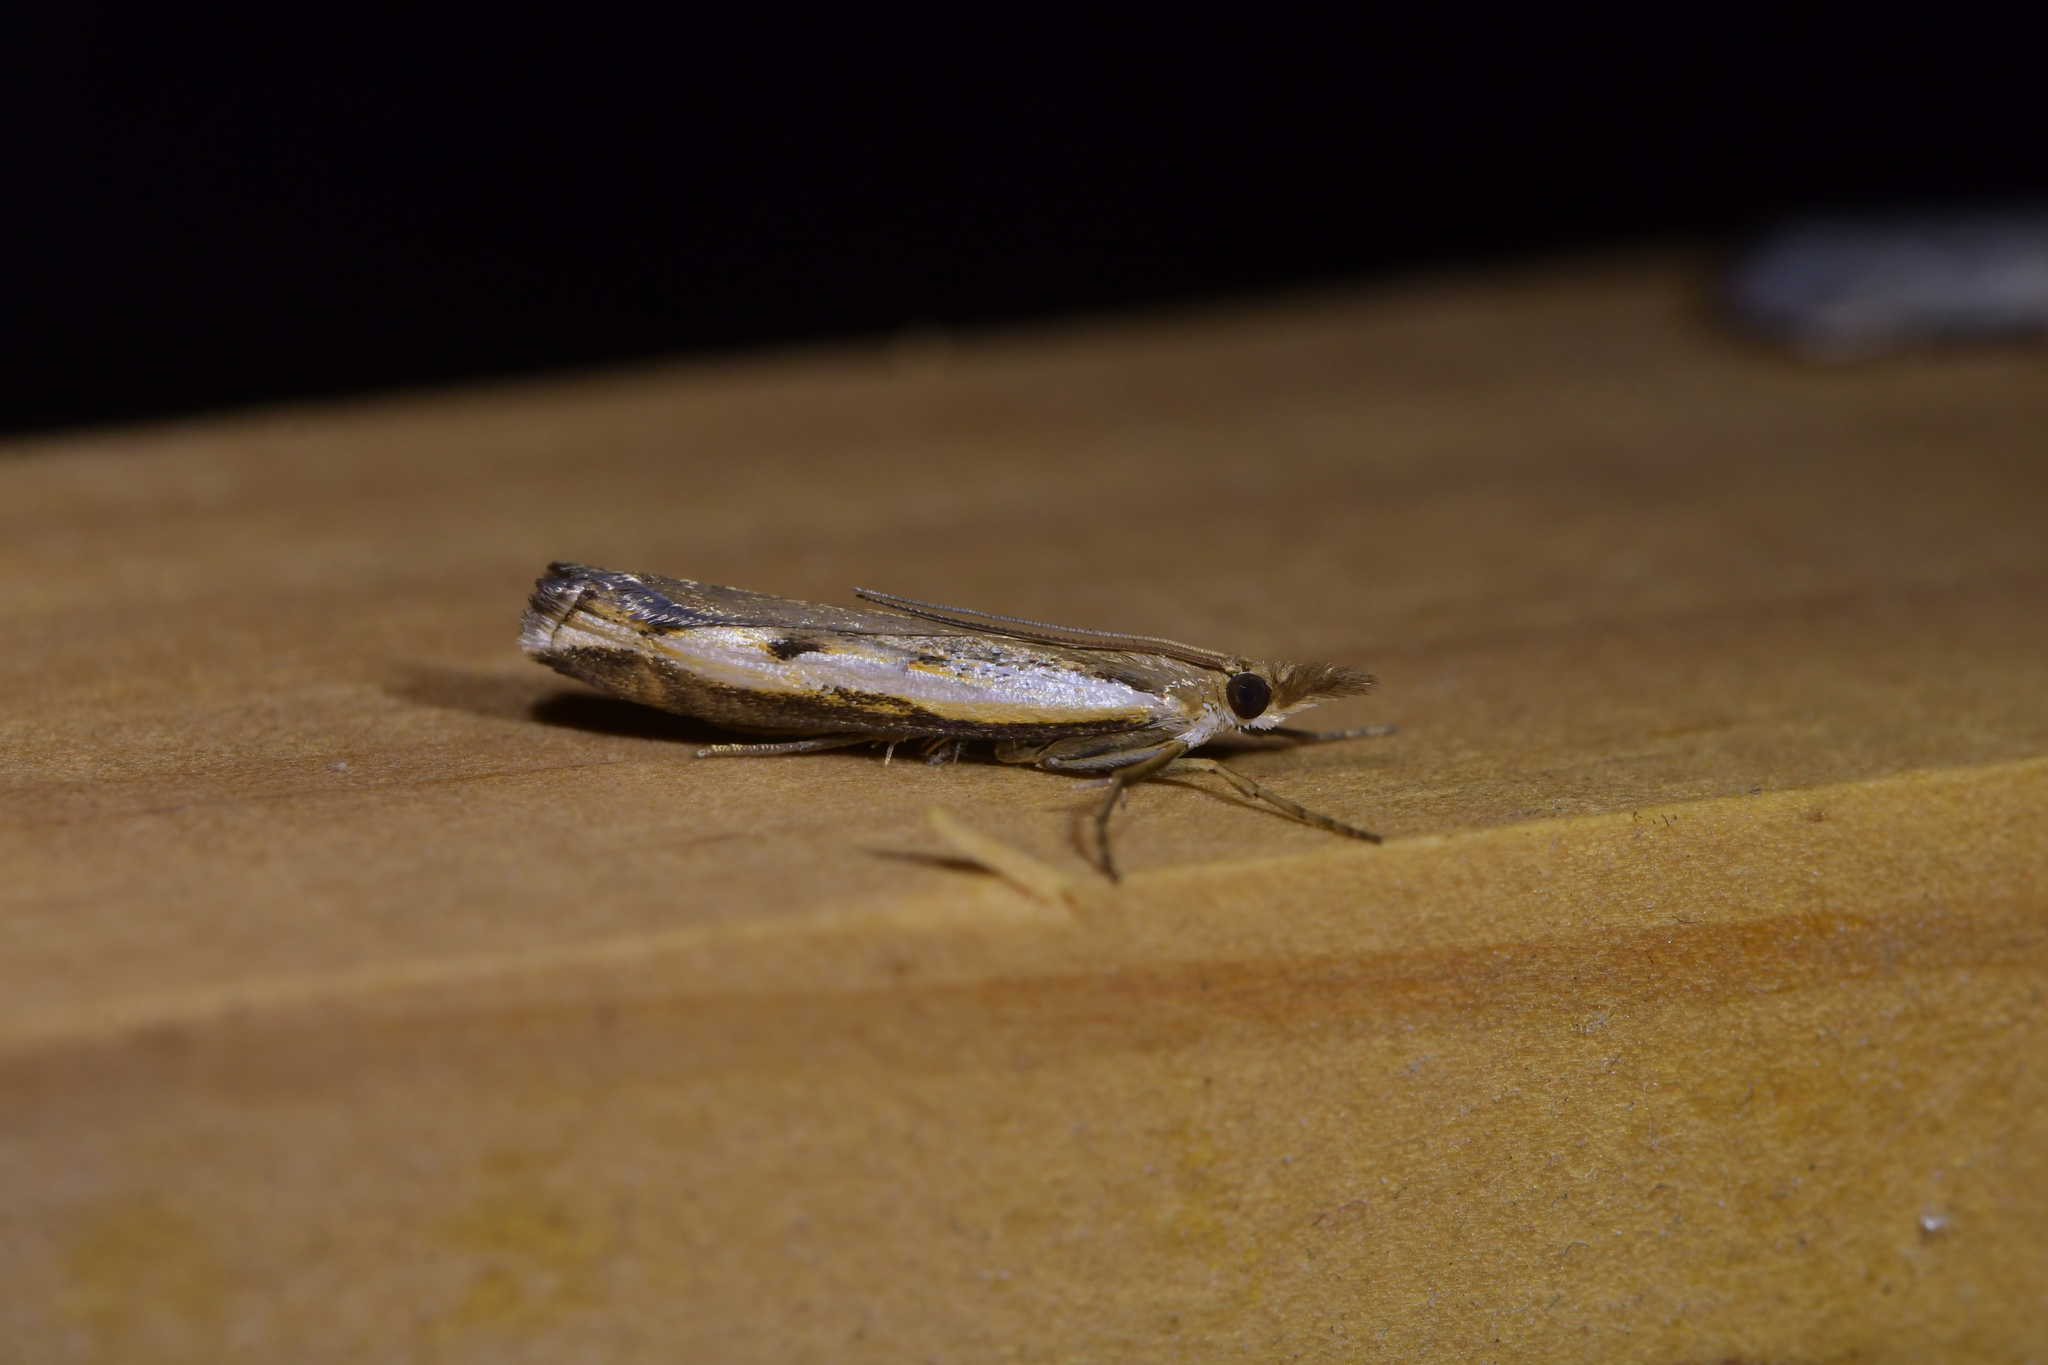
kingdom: Animalia
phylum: Arthropoda
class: Insecta
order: Lepidoptera
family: Crambidae
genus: Orocrambus
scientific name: Orocrambus flexuosellus
